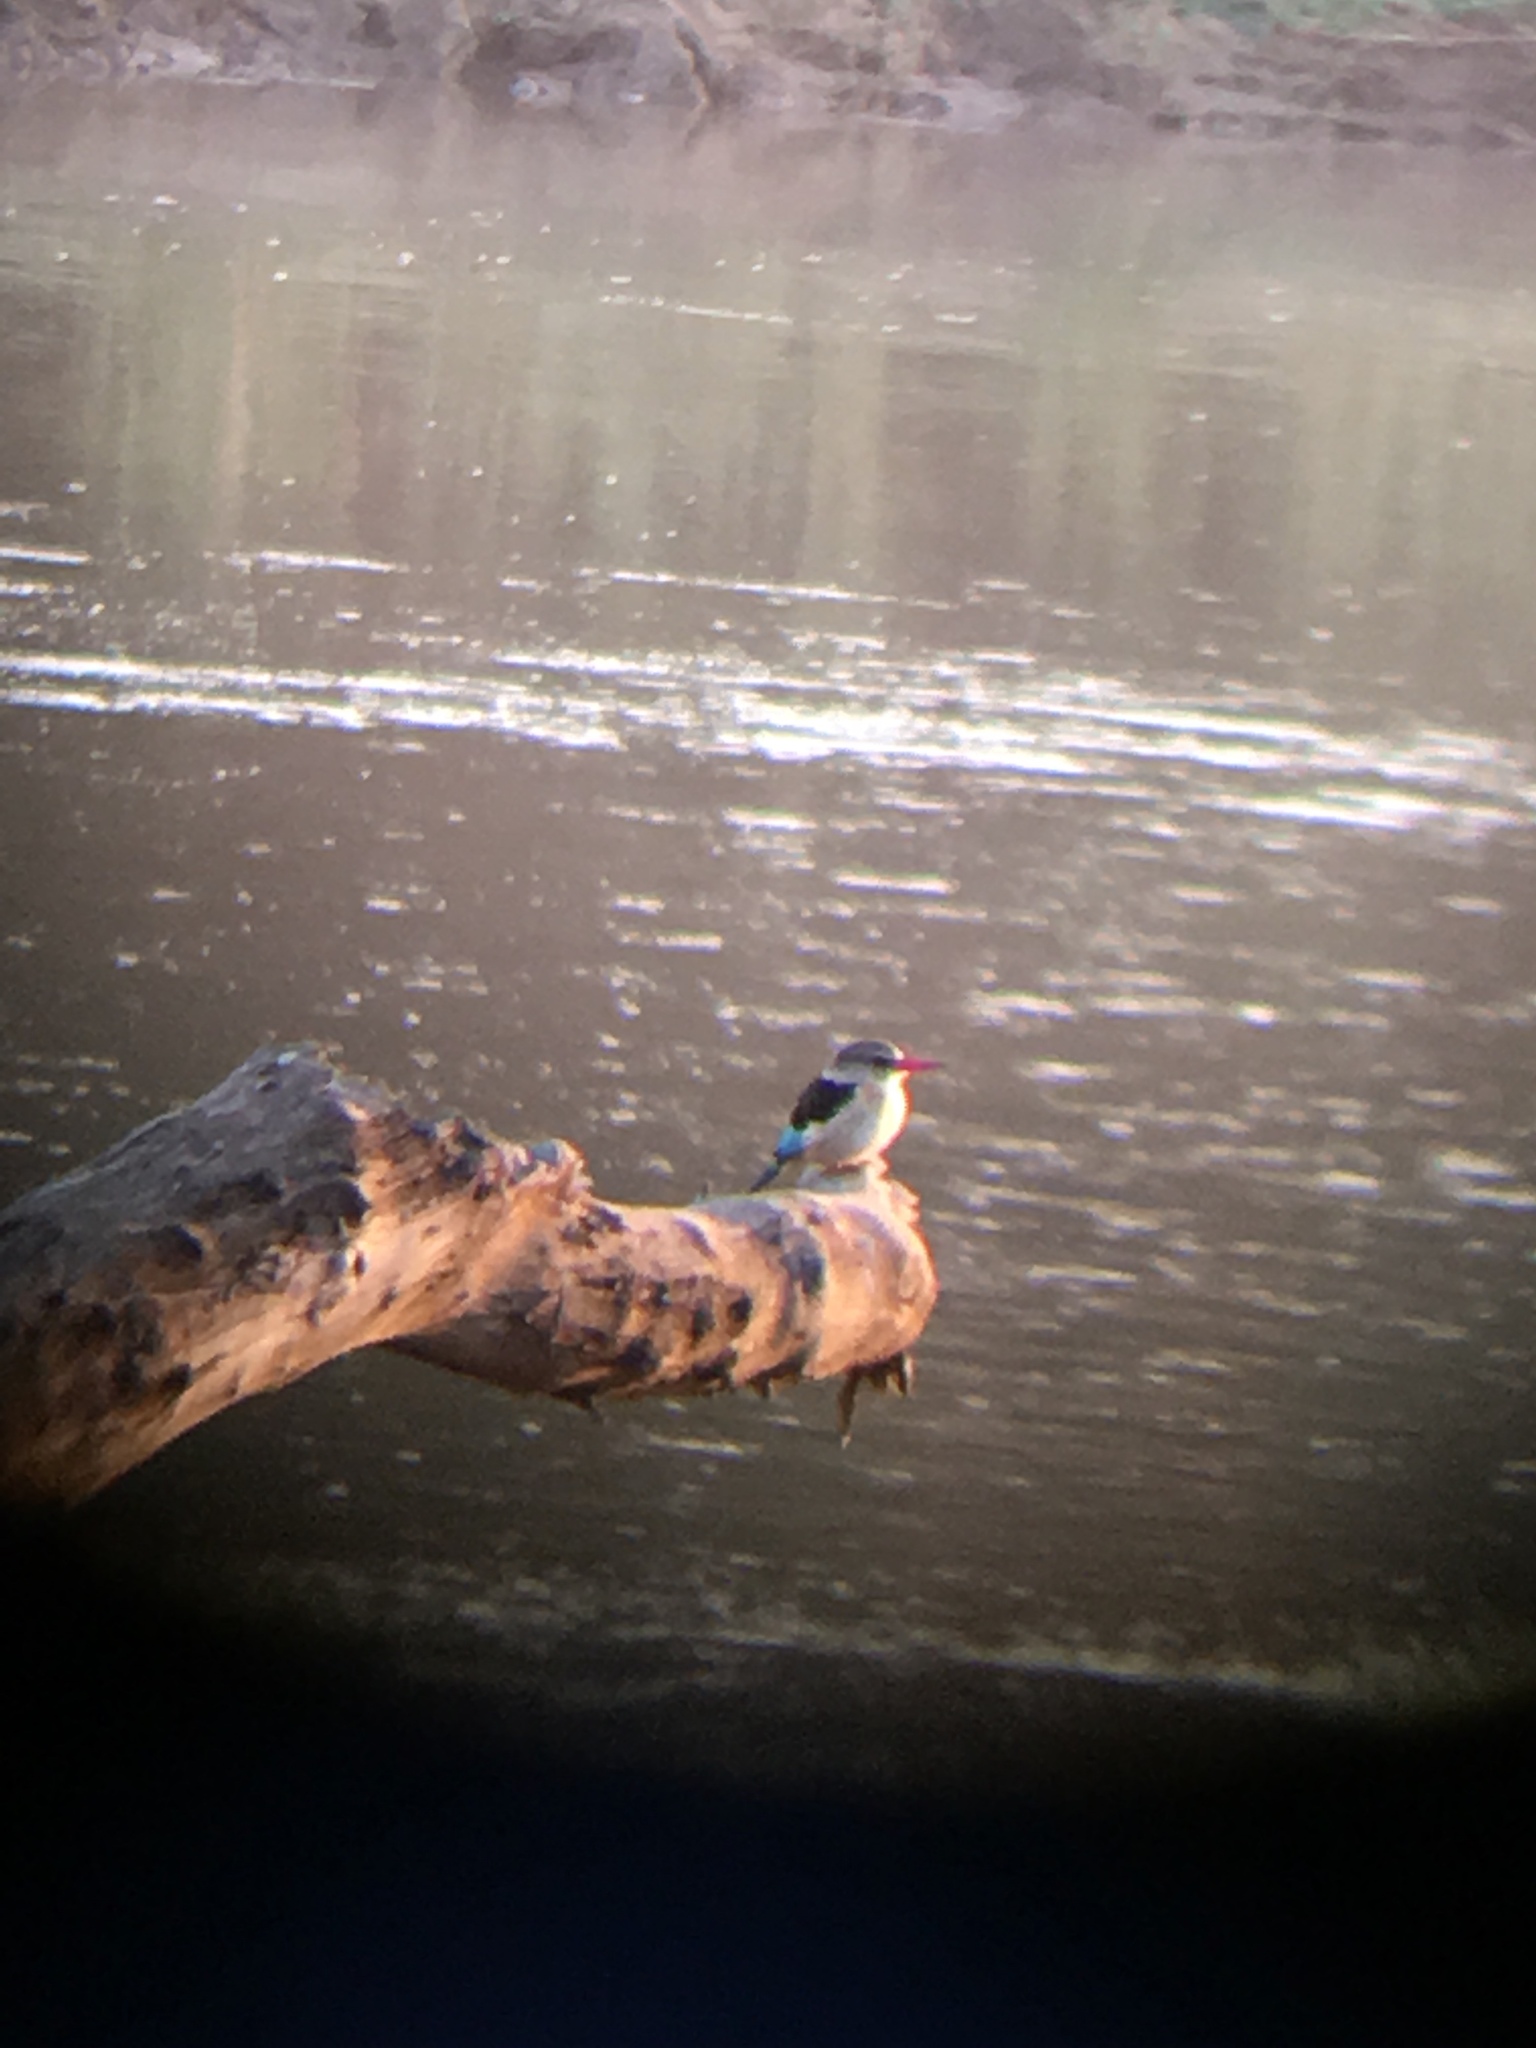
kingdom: Animalia
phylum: Chordata
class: Aves
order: Coraciiformes
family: Alcedinidae
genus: Halcyon
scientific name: Halcyon albiventris
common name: Brown-hooded kingfisher
